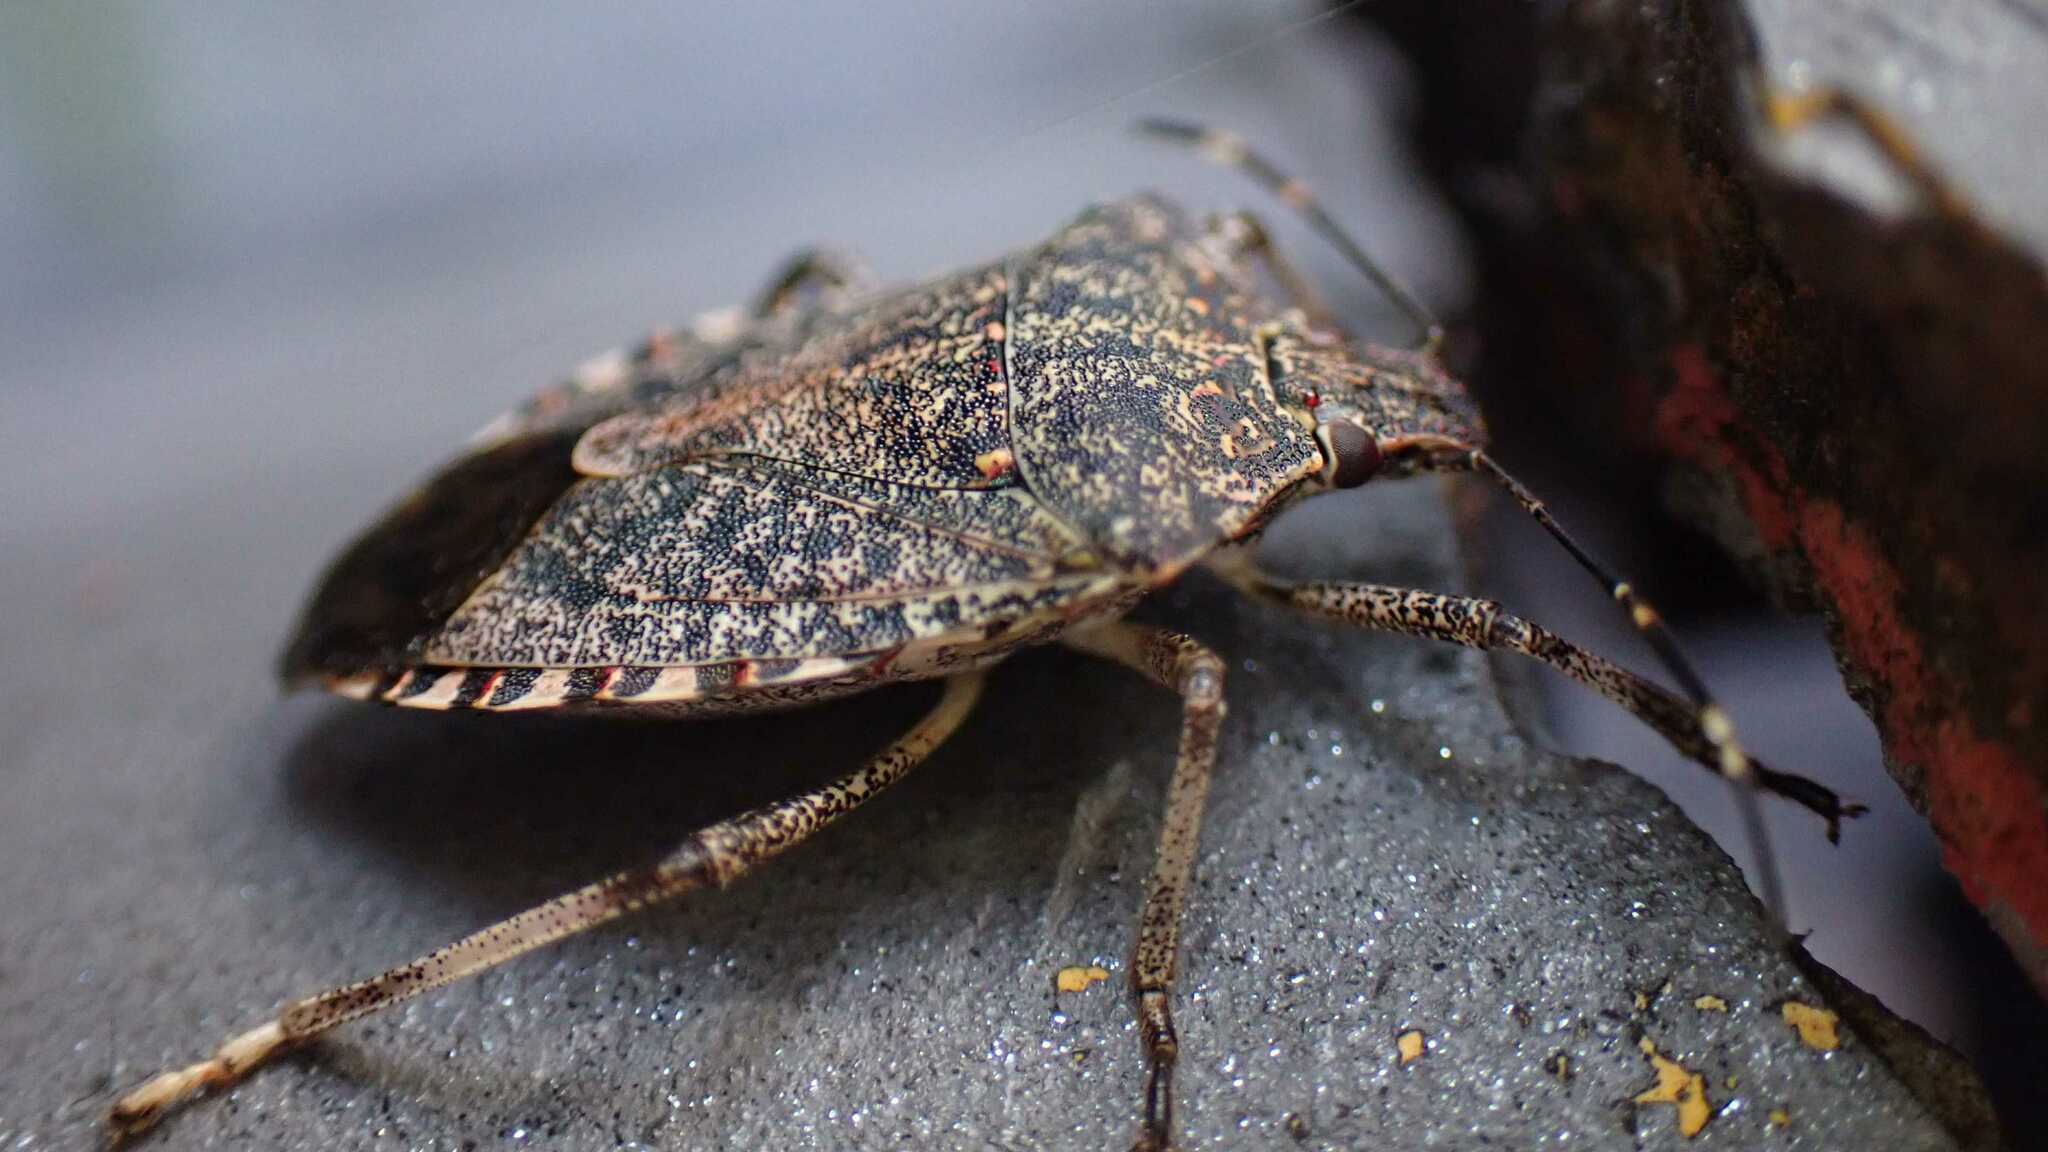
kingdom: Animalia
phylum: Arthropoda
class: Insecta
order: Hemiptera
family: Pentatomidae
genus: Halyomorpha
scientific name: Halyomorpha halys
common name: Brown marmorated stink bug
